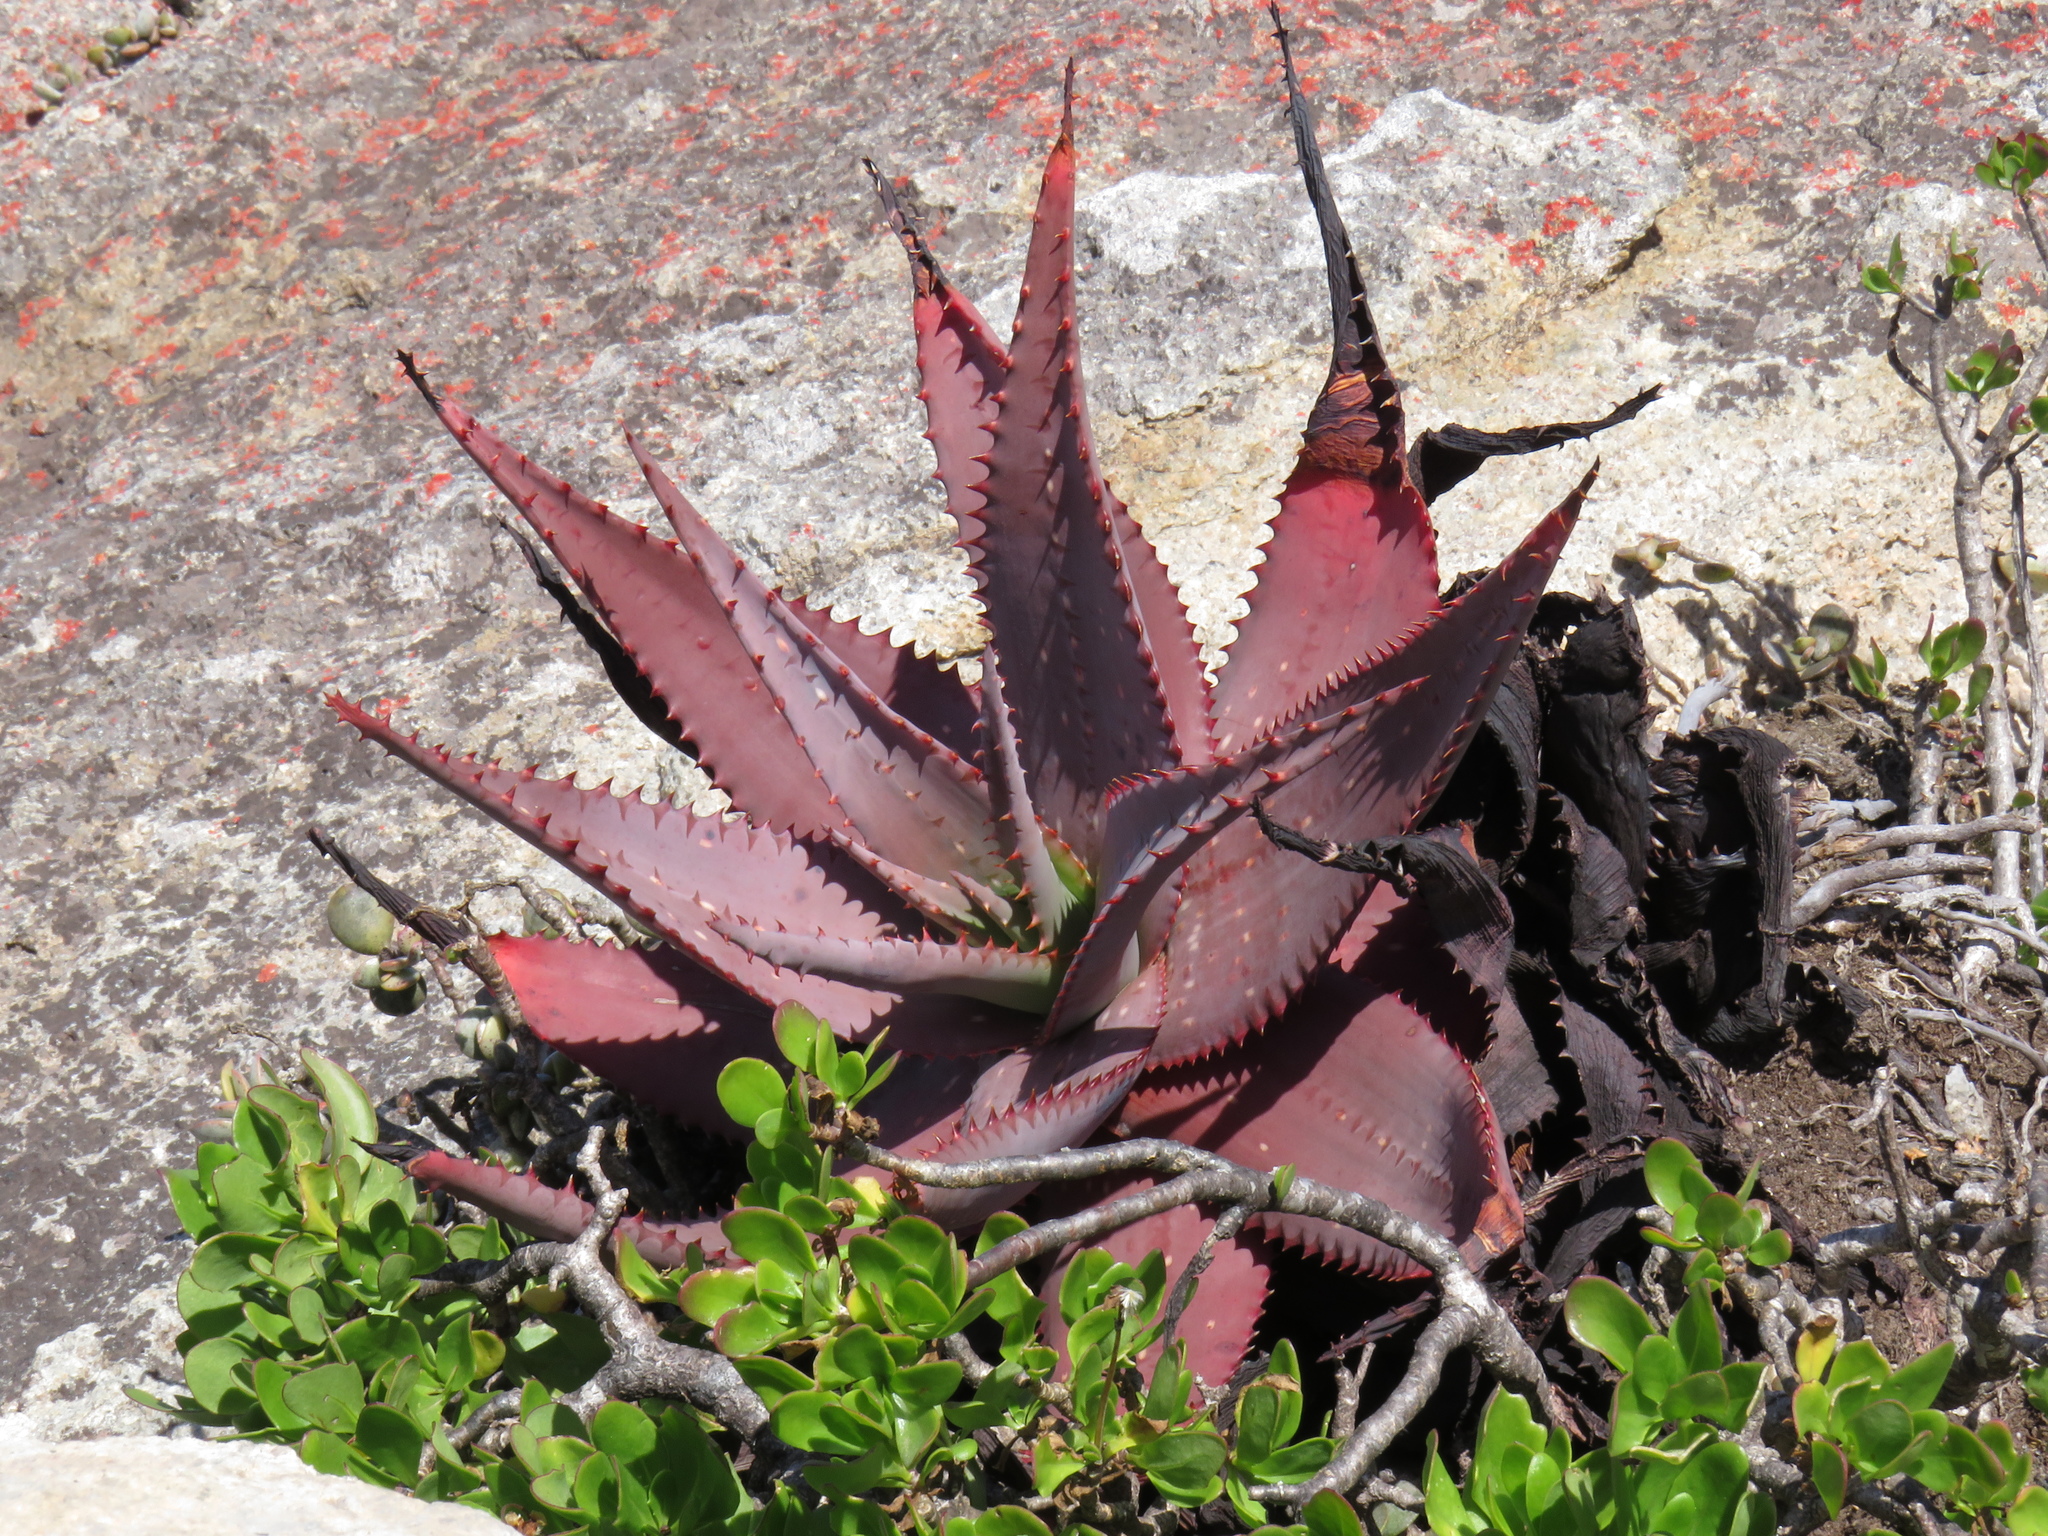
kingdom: Plantae
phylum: Tracheophyta
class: Liliopsida
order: Asparagales
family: Asphodelaceae
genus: Aloe
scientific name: Aloe microstigma
